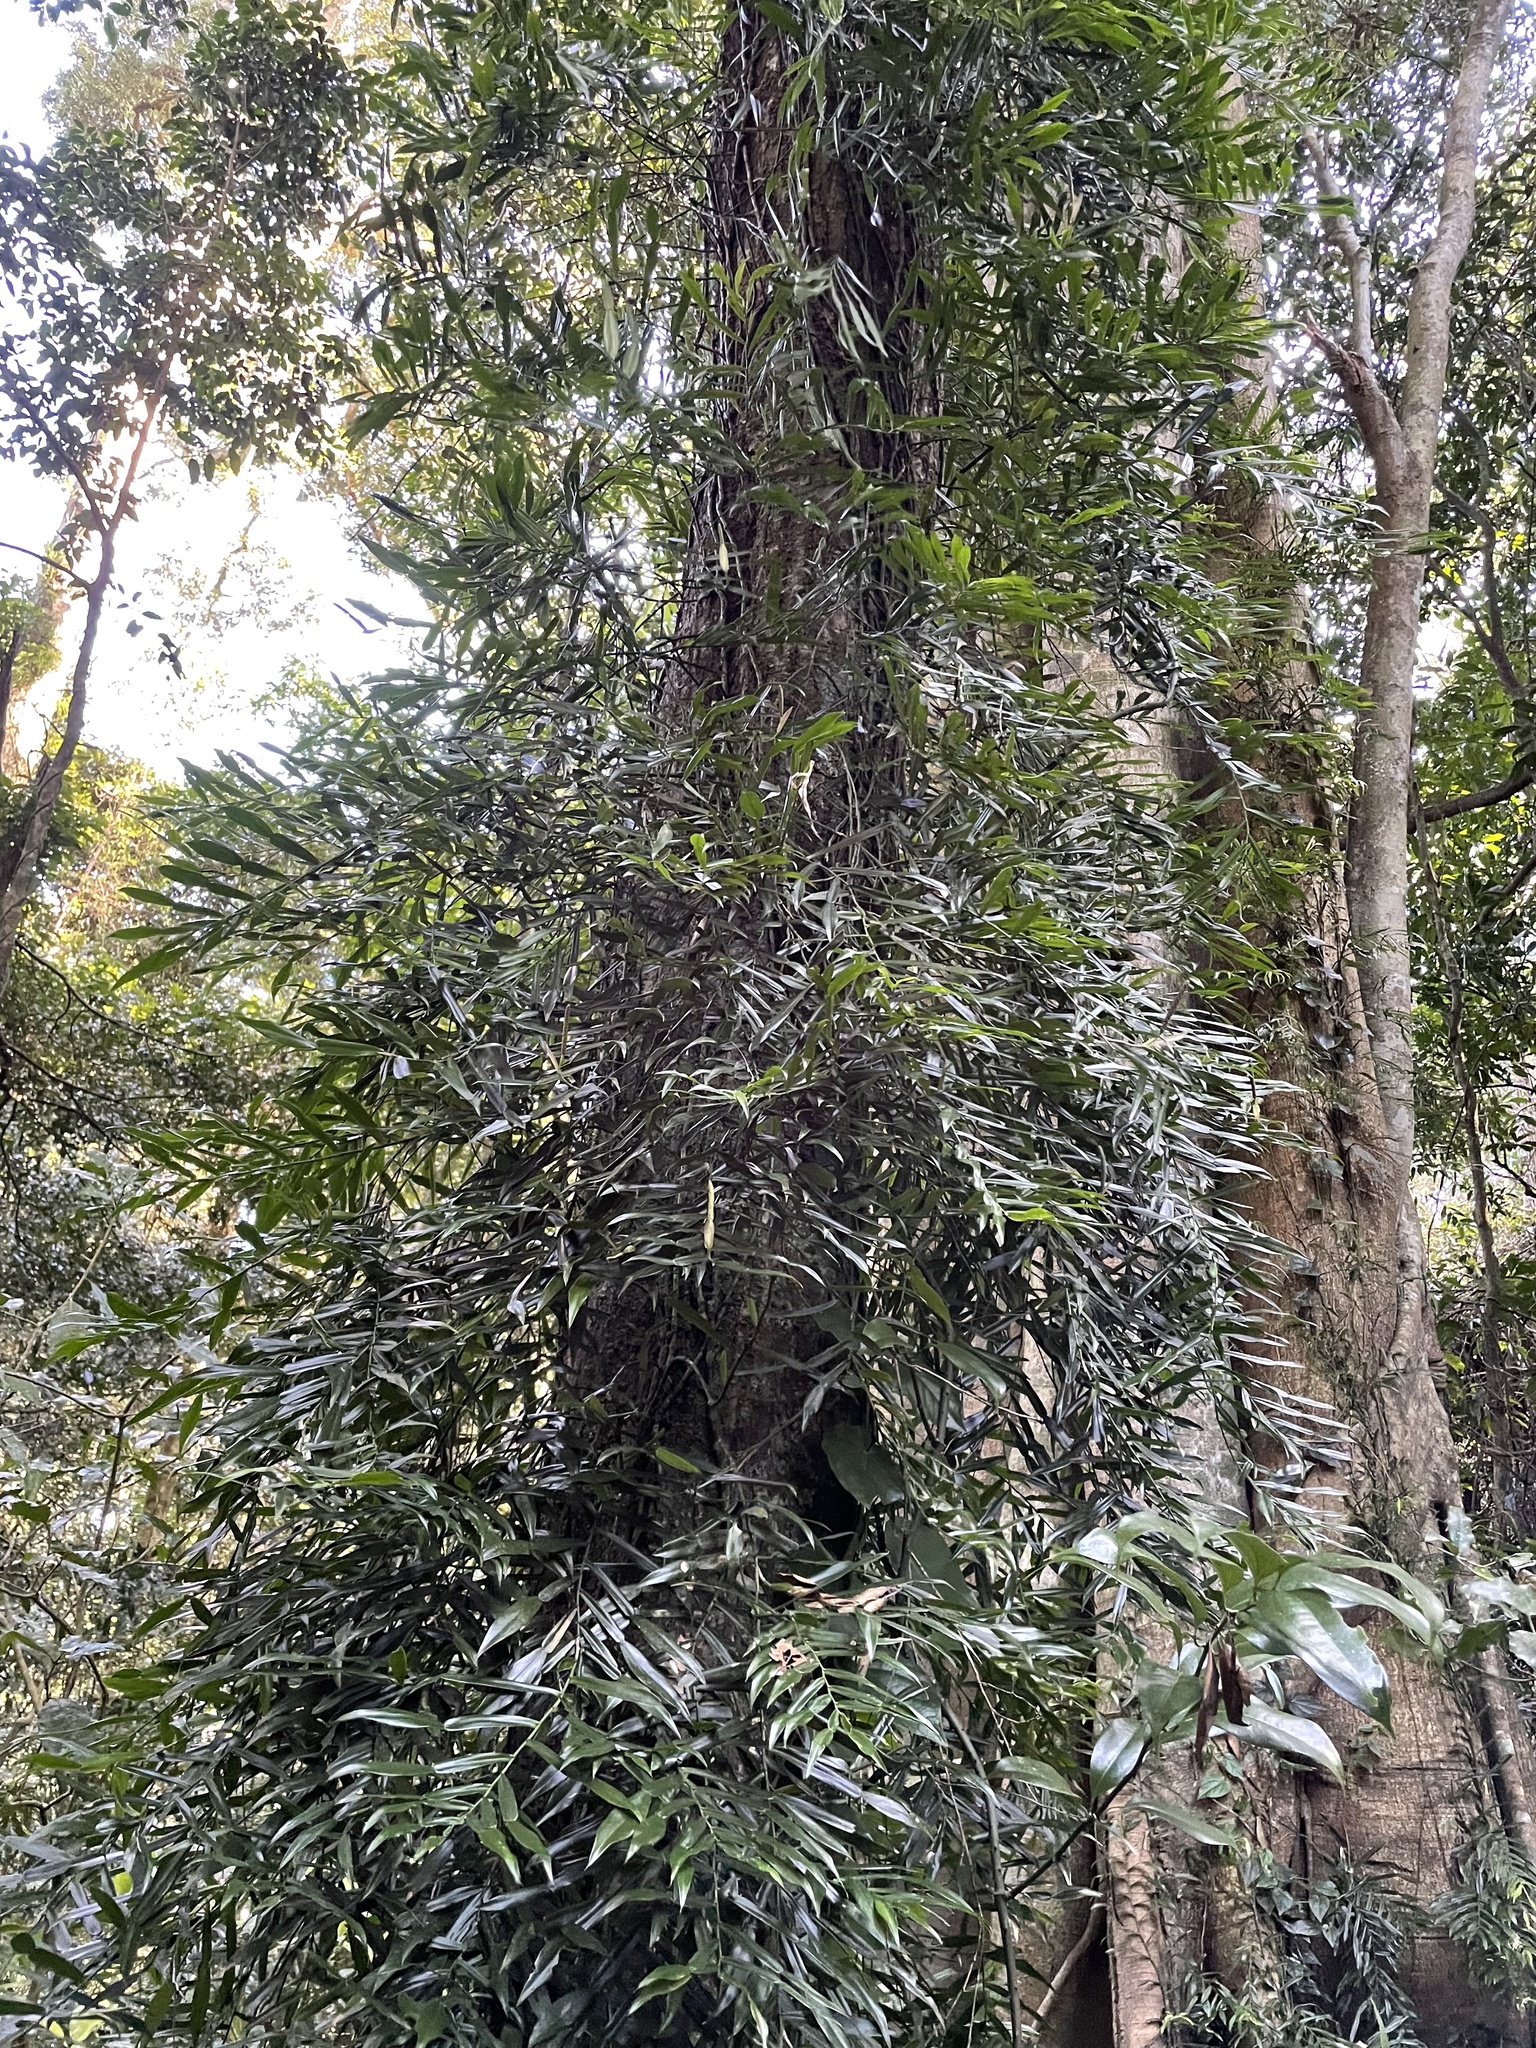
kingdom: Plantae
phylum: Tracheophyta
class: Liliopsida
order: Alismatales
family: Araceae
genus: Pothos
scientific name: Pothos longipes
